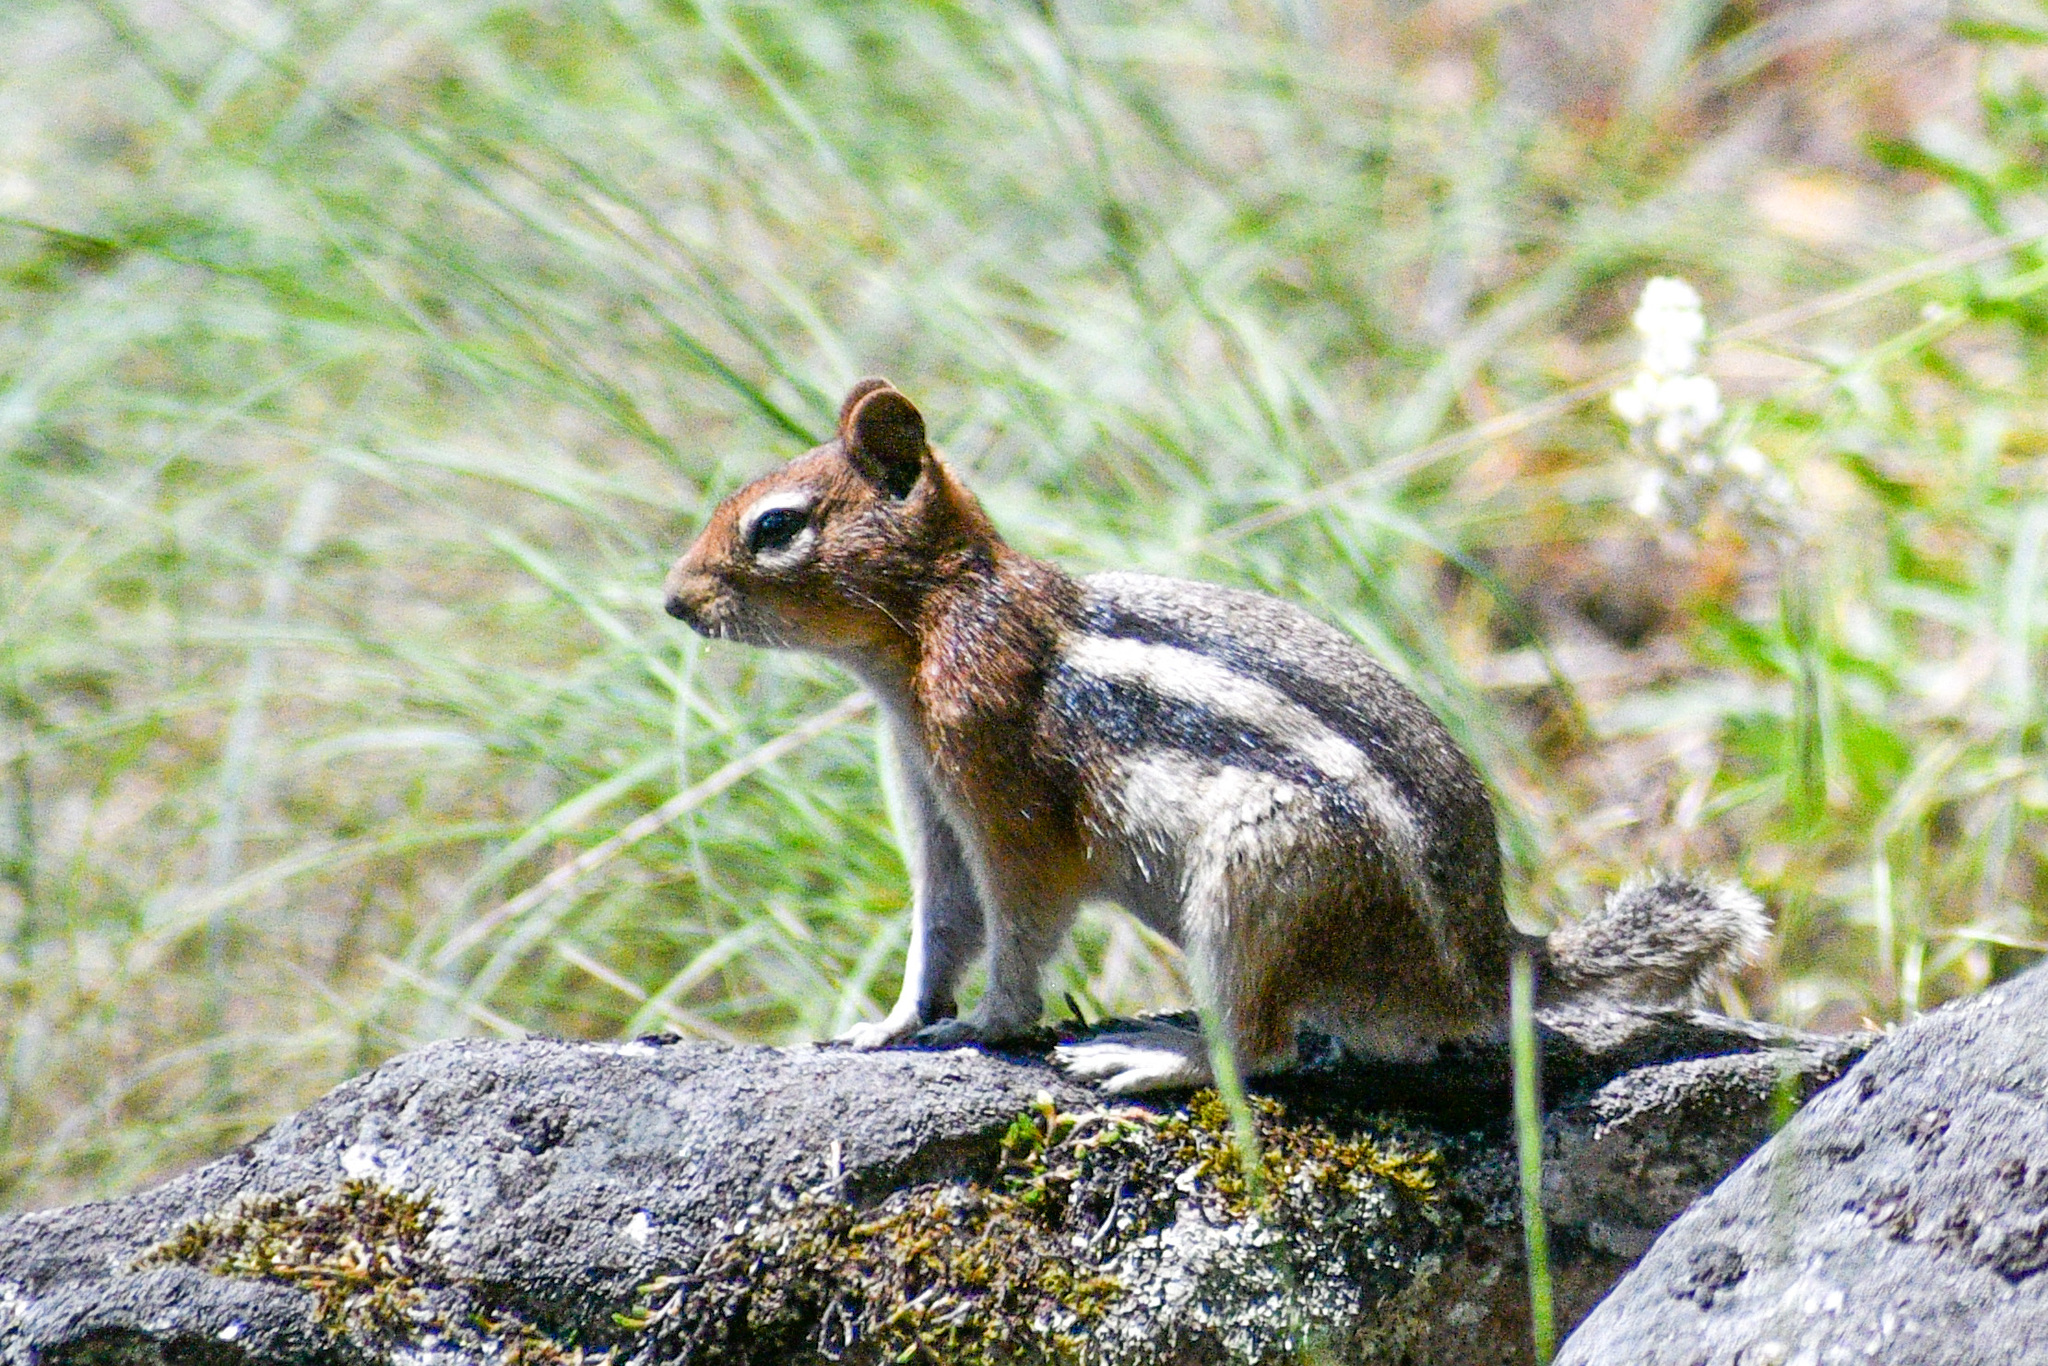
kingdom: Animalia
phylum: Chordata
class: Mammalia
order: Rodentia
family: Sciuridae
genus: Callospermophilus
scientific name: Callospermophilus lateralis
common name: Golden-mantled ground squirrel
